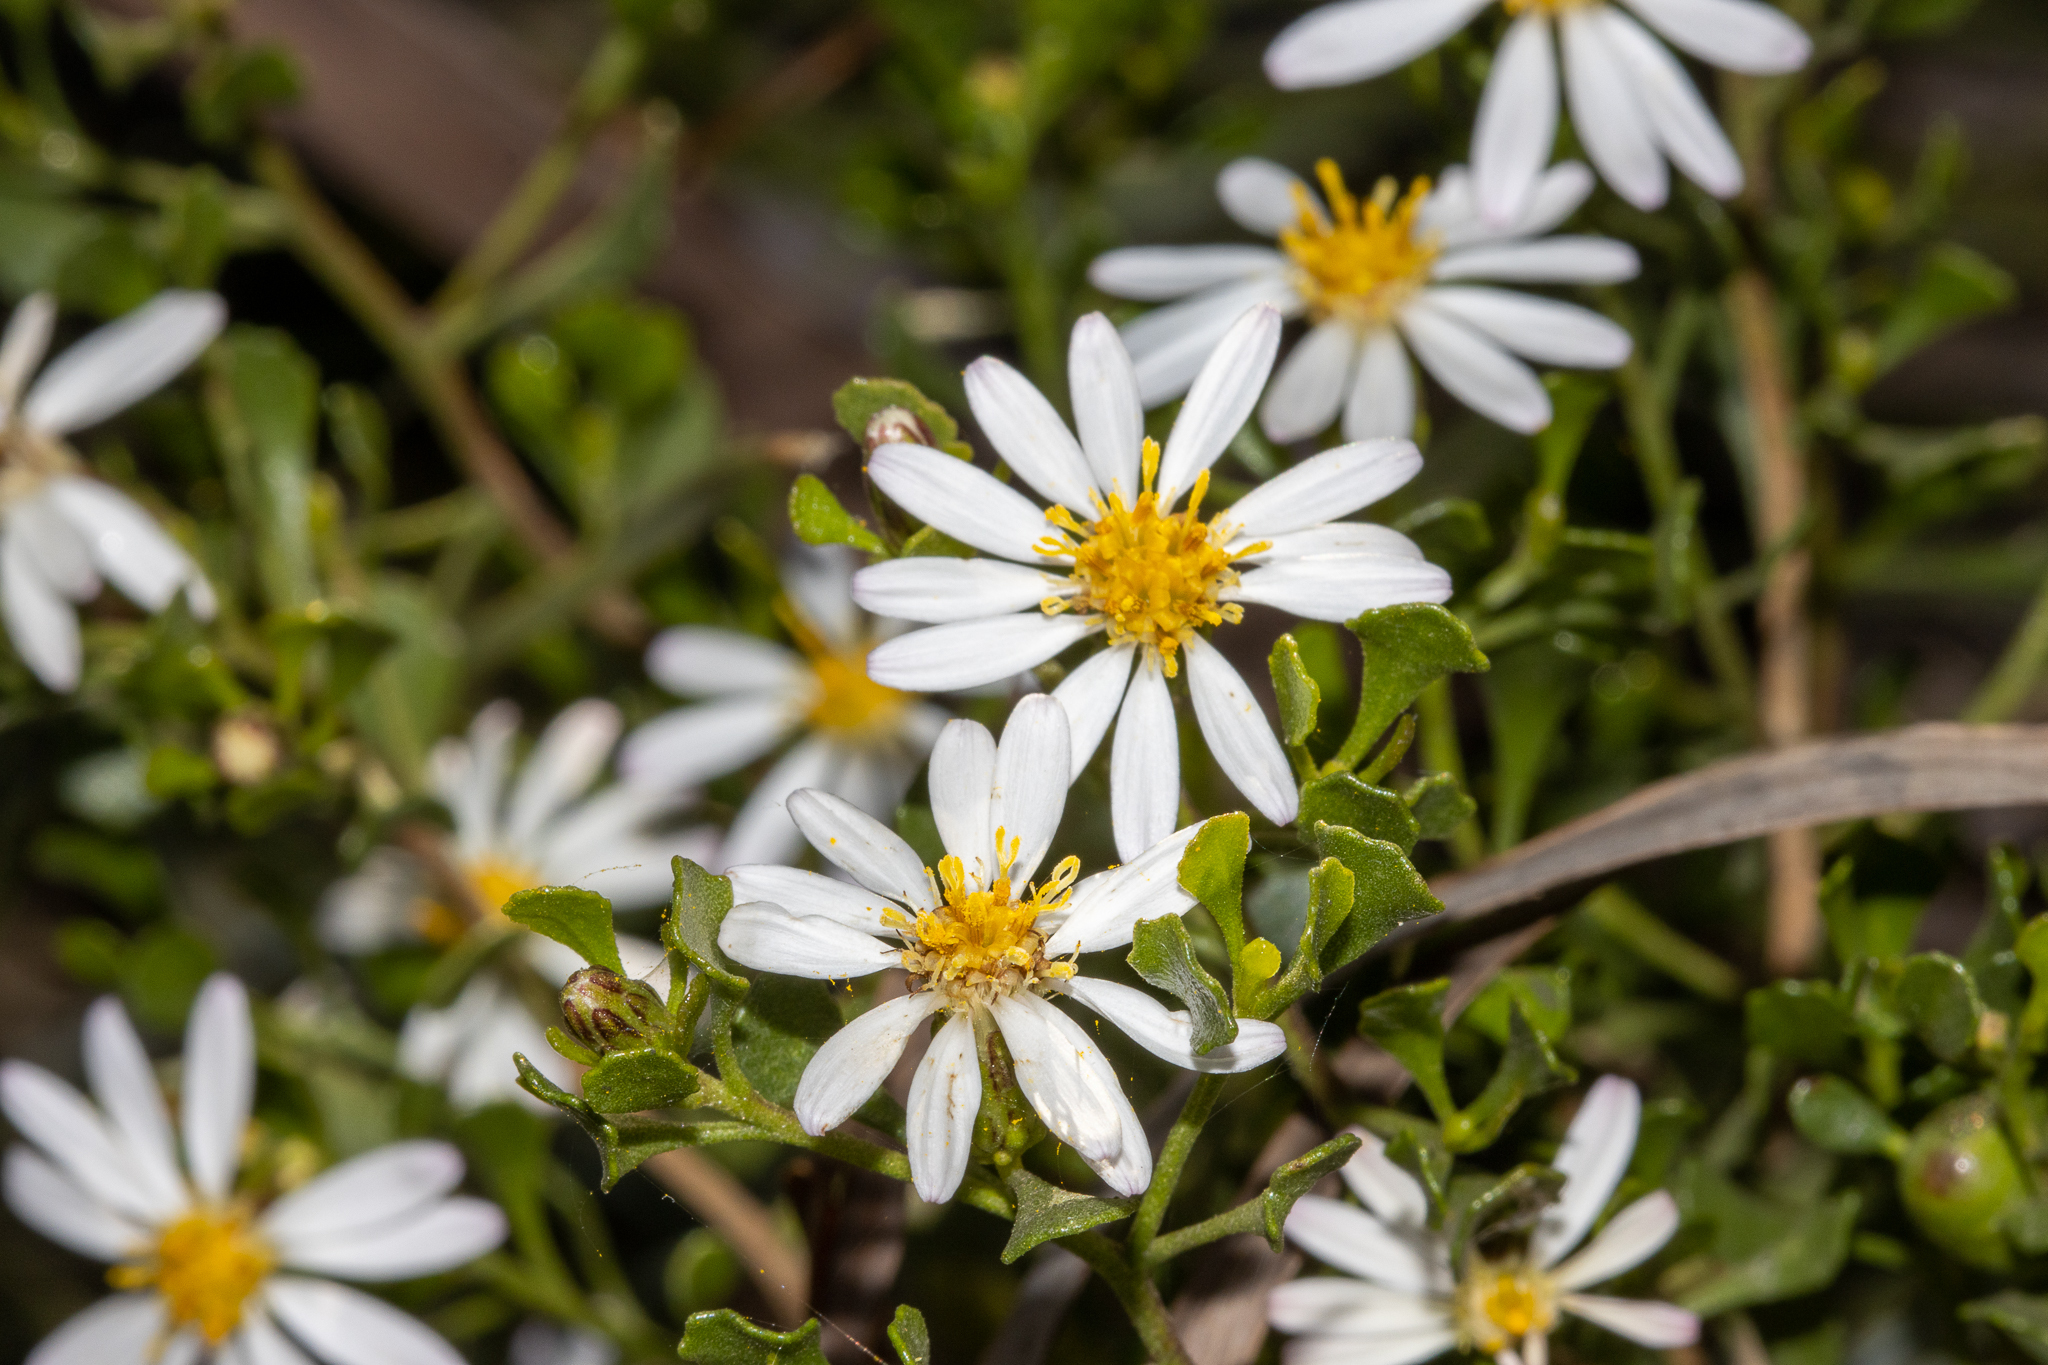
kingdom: Plantae
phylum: Tracheophyta
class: Magnoliopsida
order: Asterales
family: Asteraceae
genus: Walsholaria
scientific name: Walsholaria muelleri
